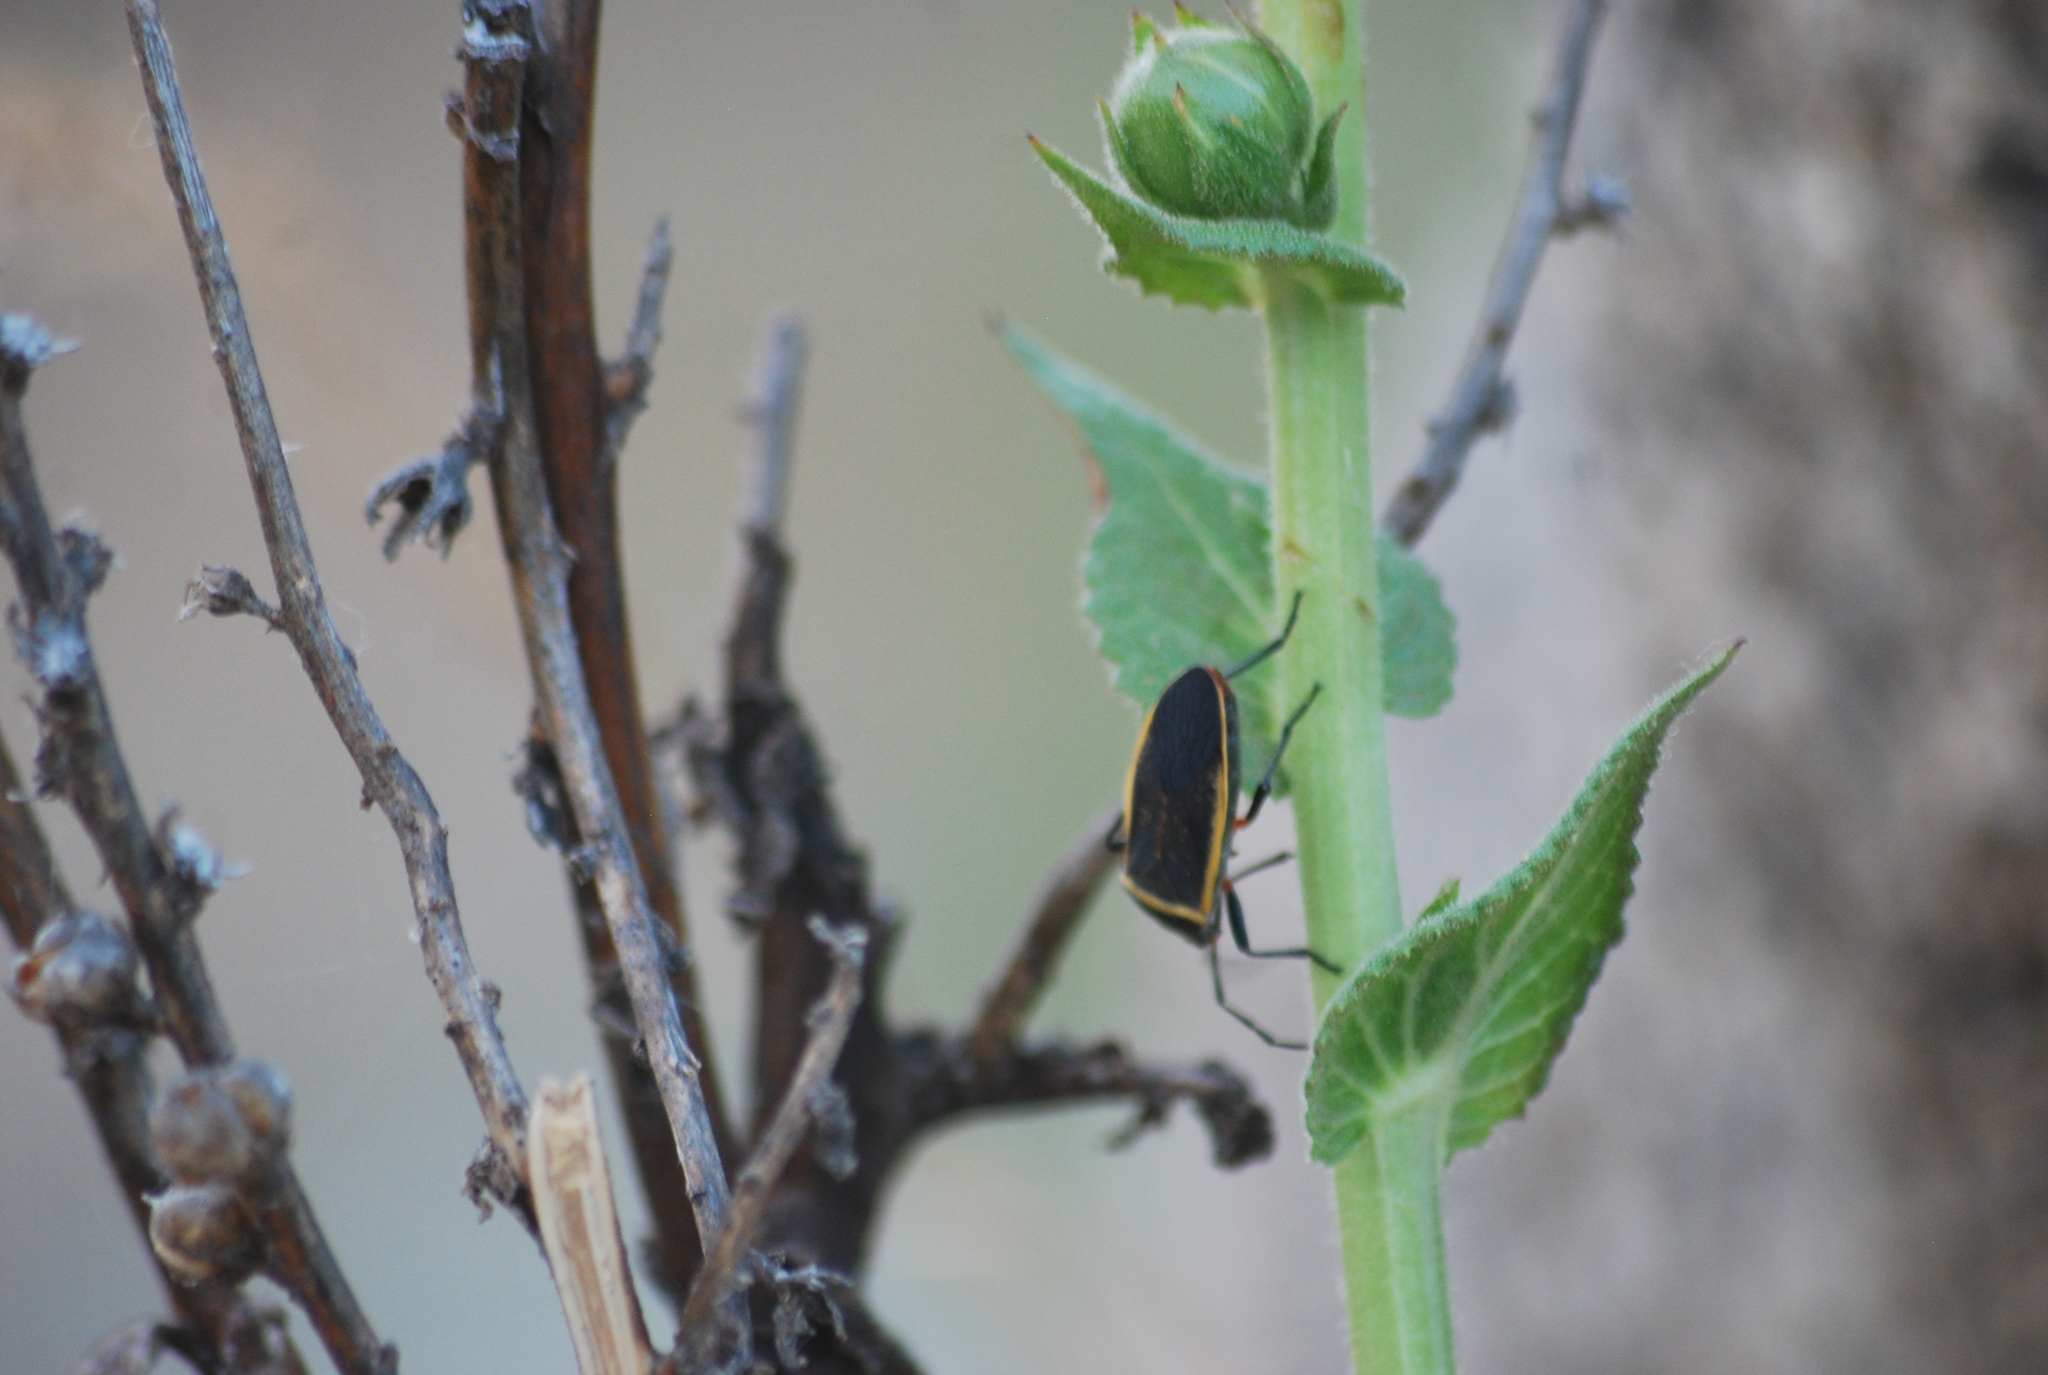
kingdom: Animalia
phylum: Arthropoda
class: Insecta
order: Hemiptera
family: Largidae
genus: Largus
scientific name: Largus californicus
